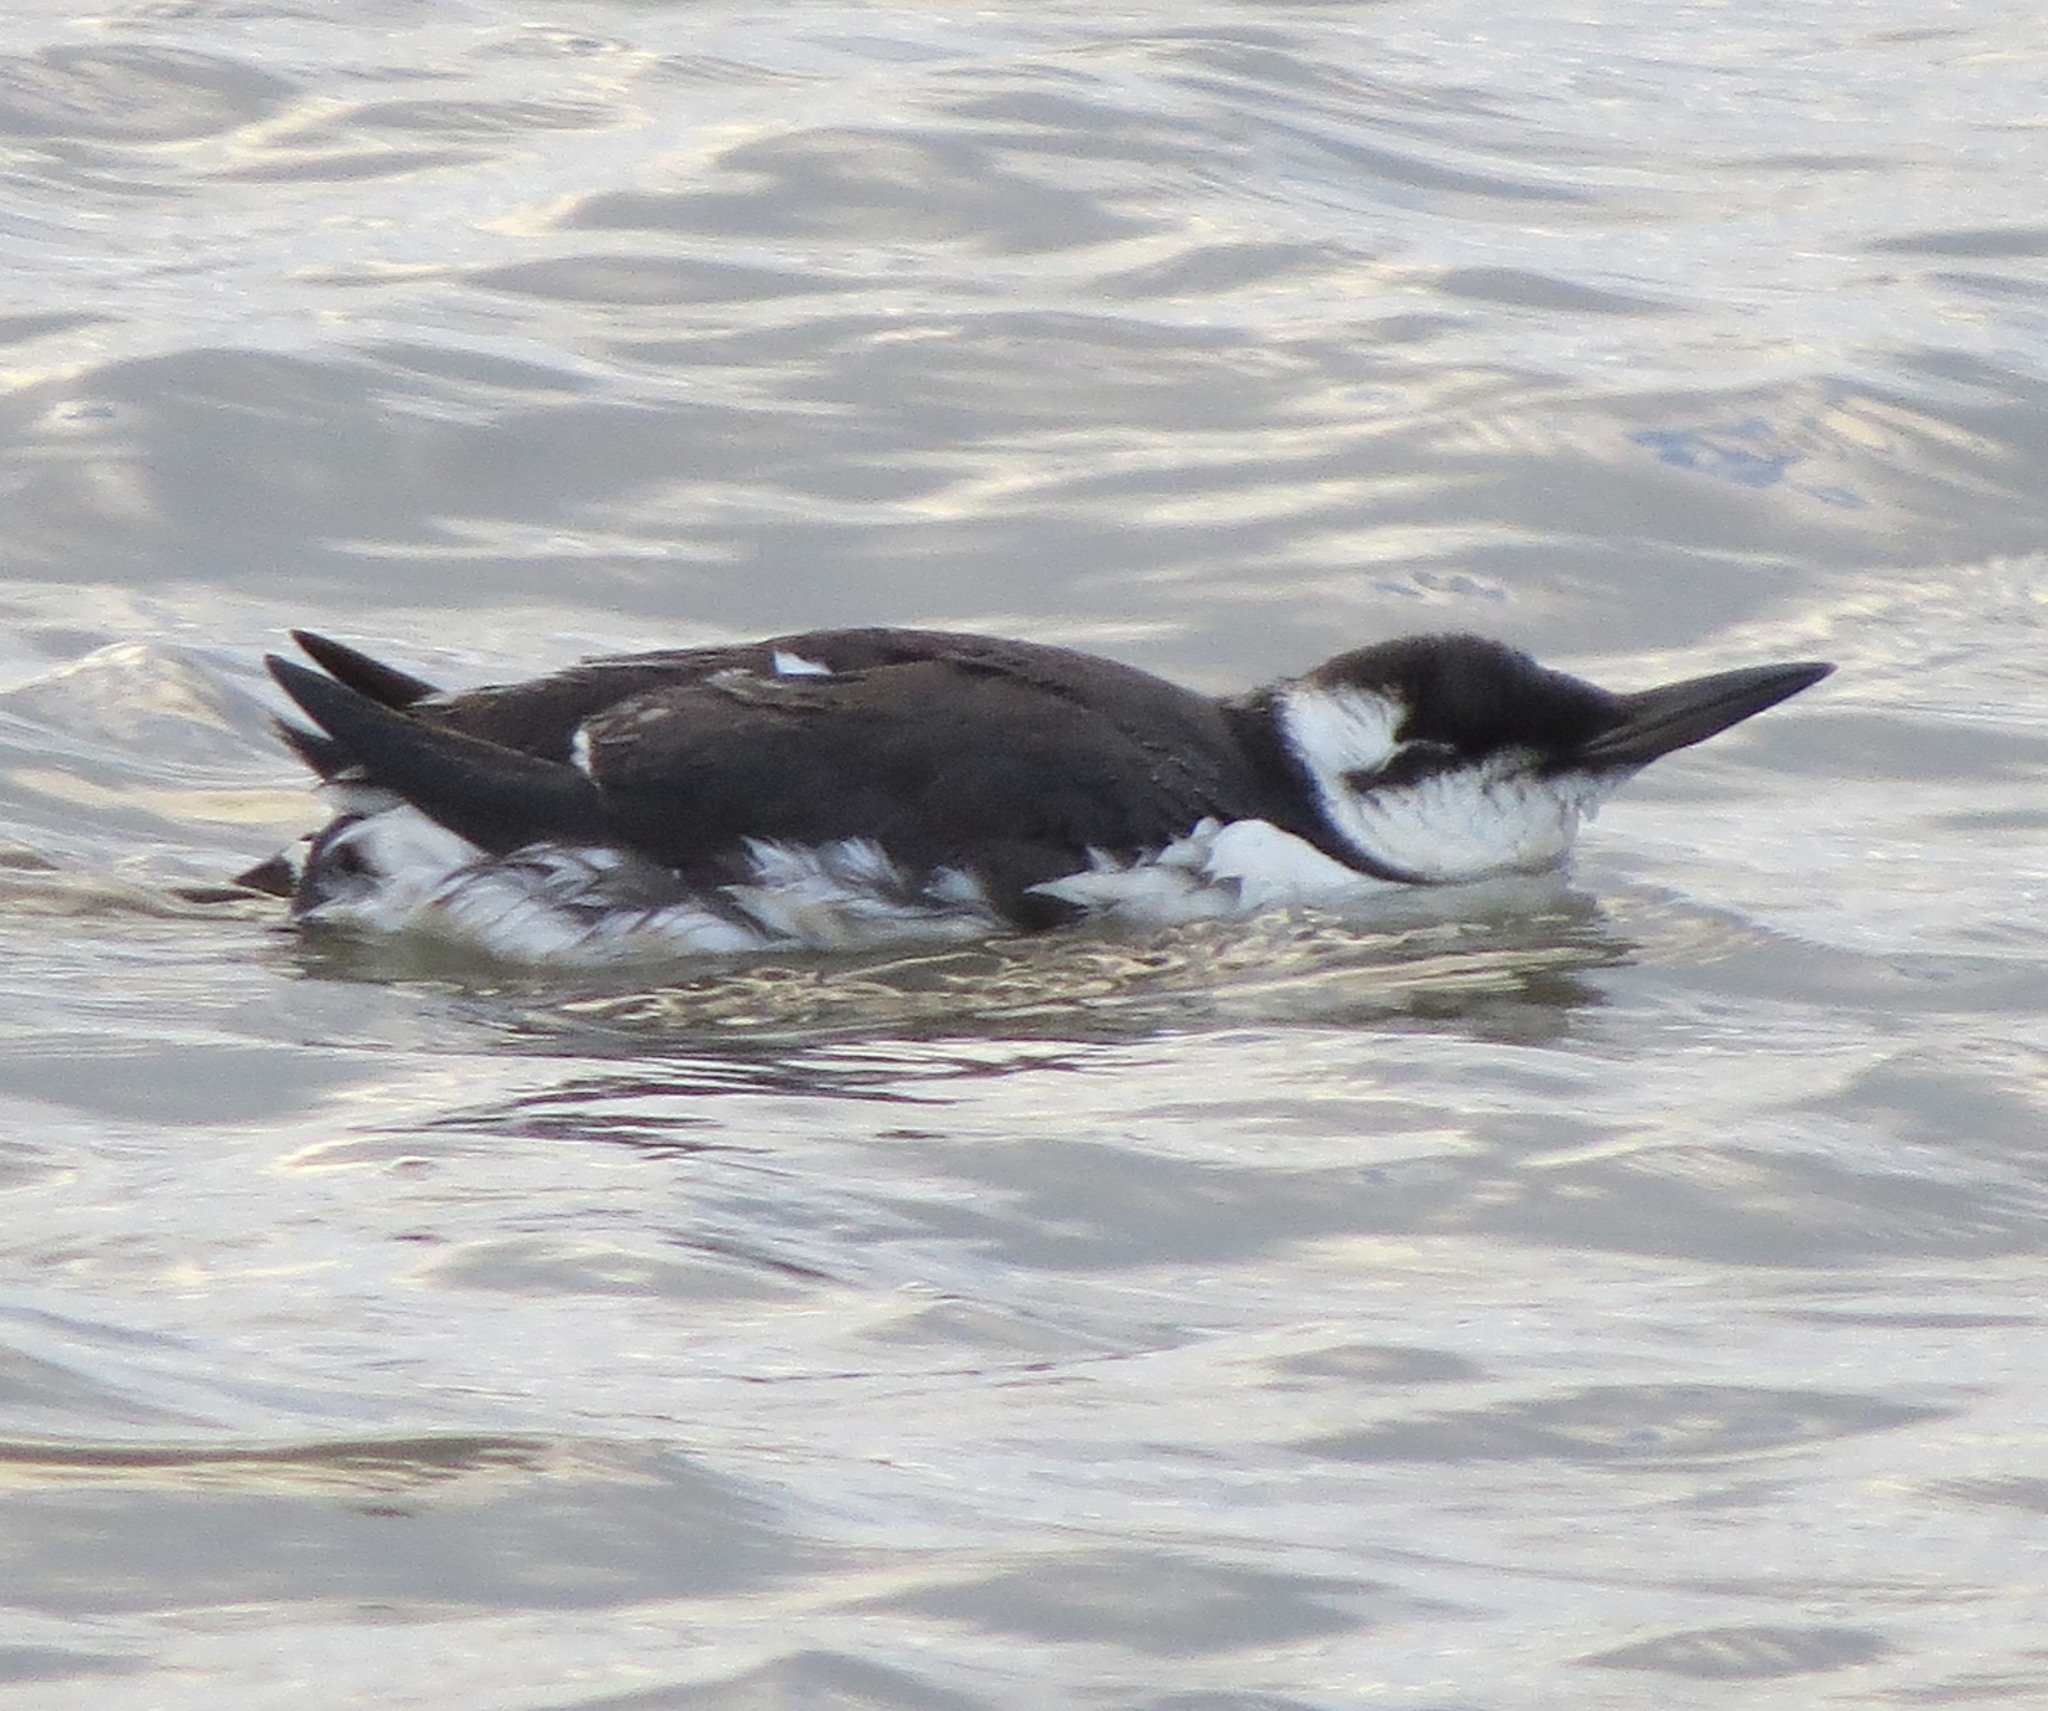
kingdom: Animalia
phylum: Chordata
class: Aves
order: Charadriiformes
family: Alcidae
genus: Uria
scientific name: Uria aalge
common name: Common murre
